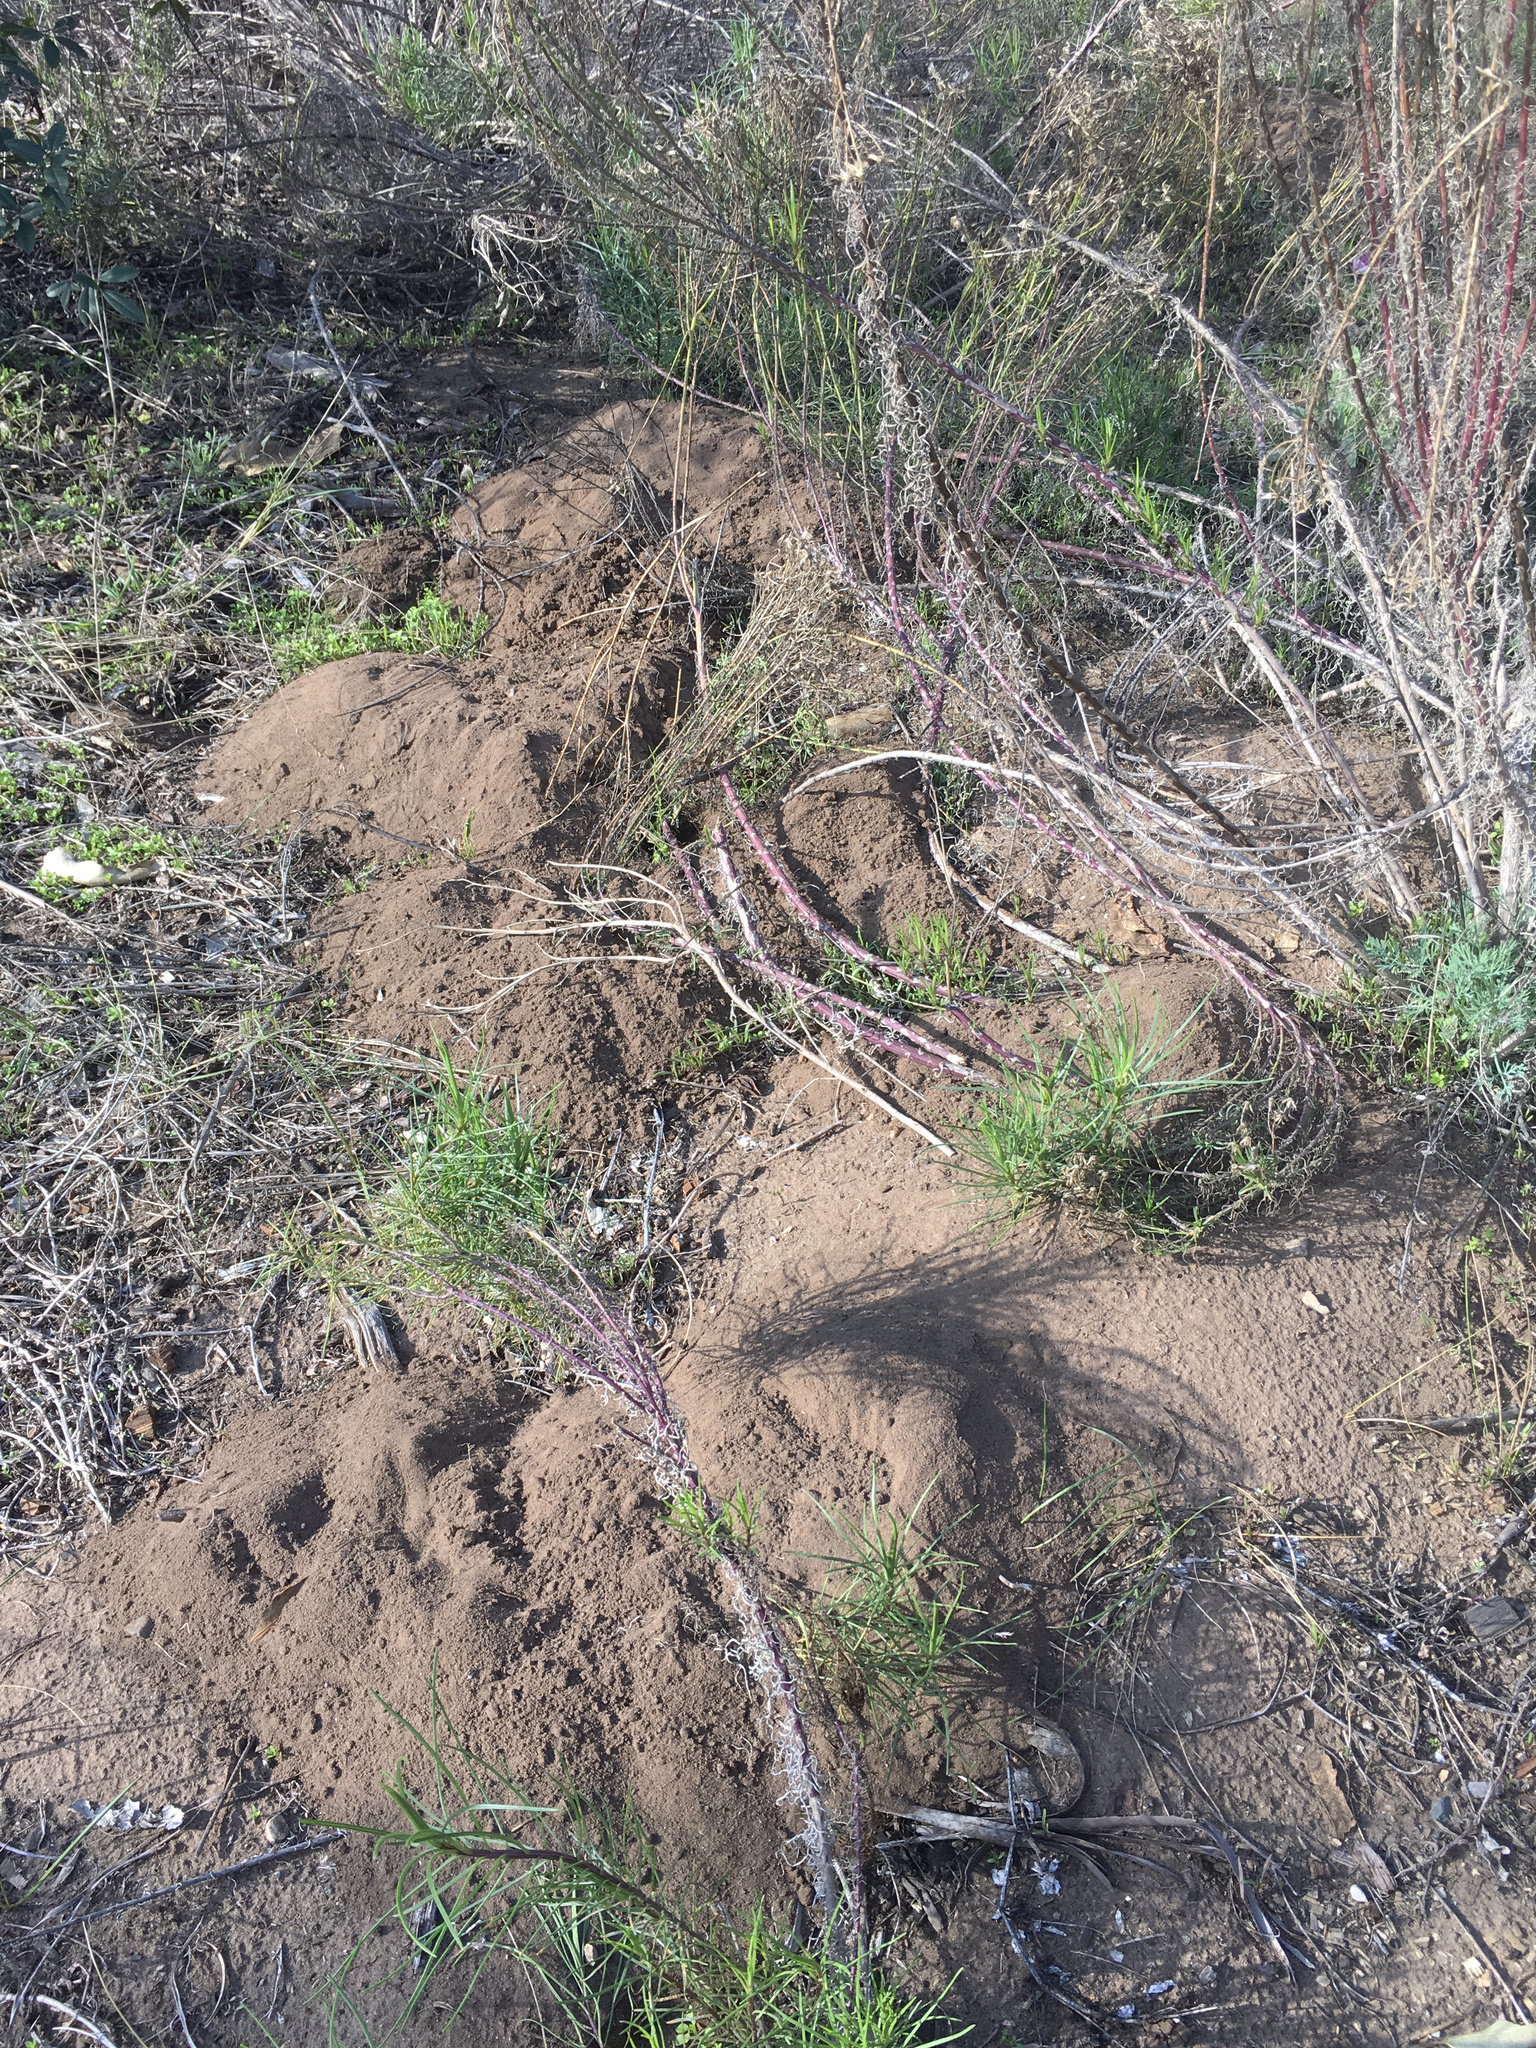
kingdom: Animalia
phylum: Chordata
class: Mammalia
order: Rodentia
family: Geomyidae
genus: Thomomys
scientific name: Thomomys
